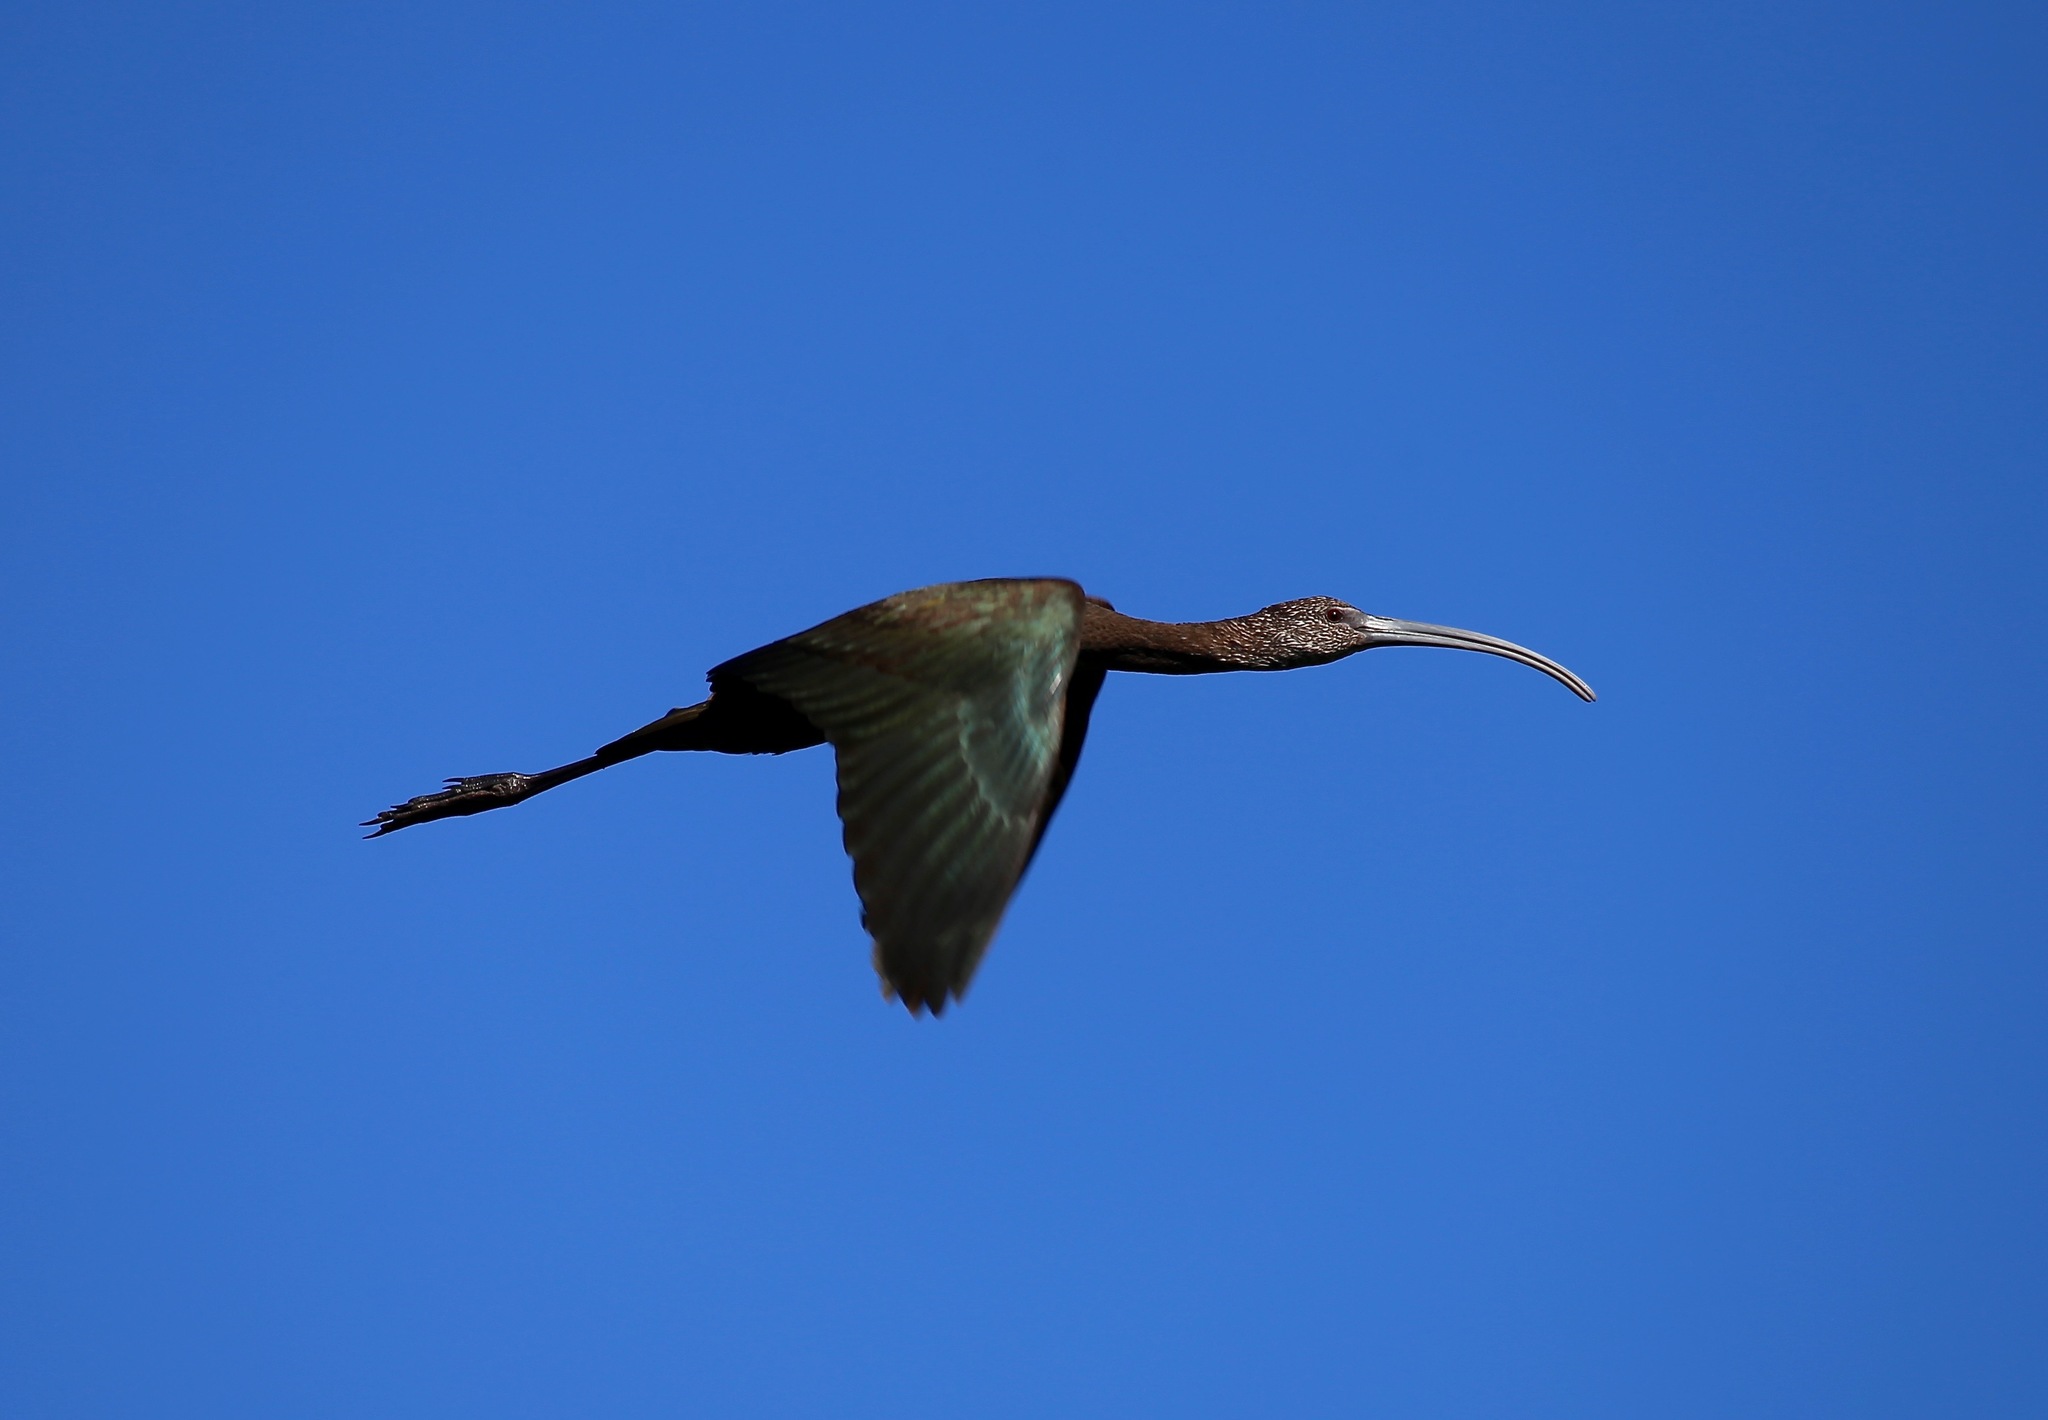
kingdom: Animalia
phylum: Chordata
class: Aves
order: Pelecaniformes
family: Threskiornithidae
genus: Plegadis
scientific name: Plegadis chihi
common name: White-faced ibis
